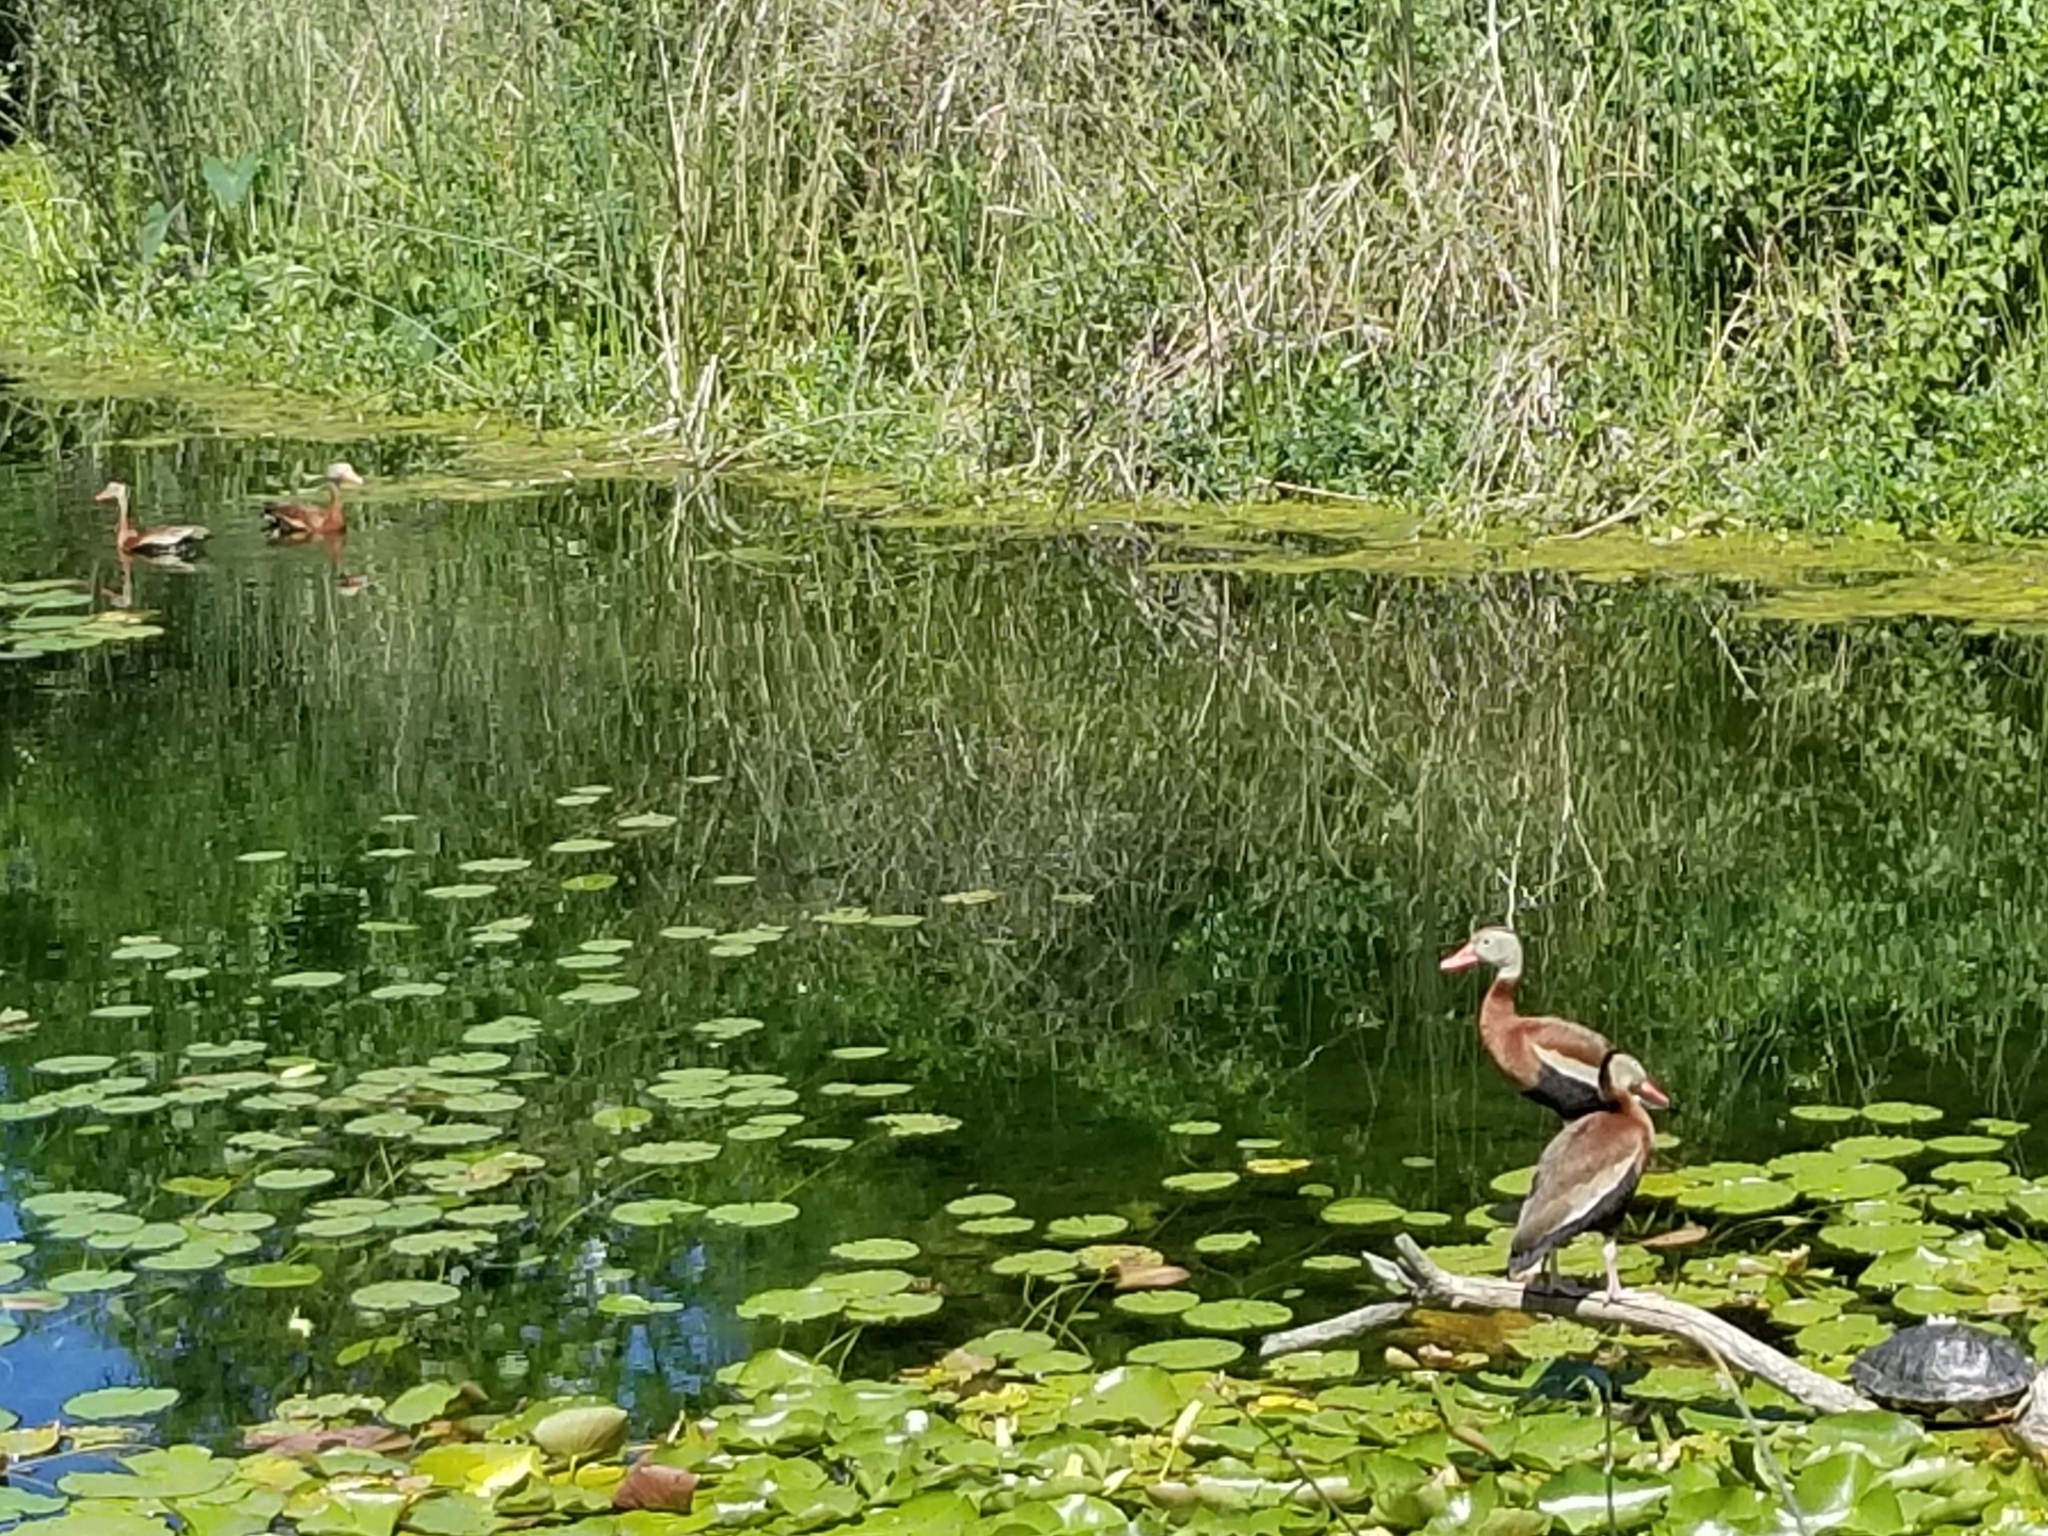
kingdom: Animalia
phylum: Chordata
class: Aves
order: Anseriformes
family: Anatidae
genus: Dendrocygna
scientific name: Dendrocygna autumnalis
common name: Black-bellied whistling duck
